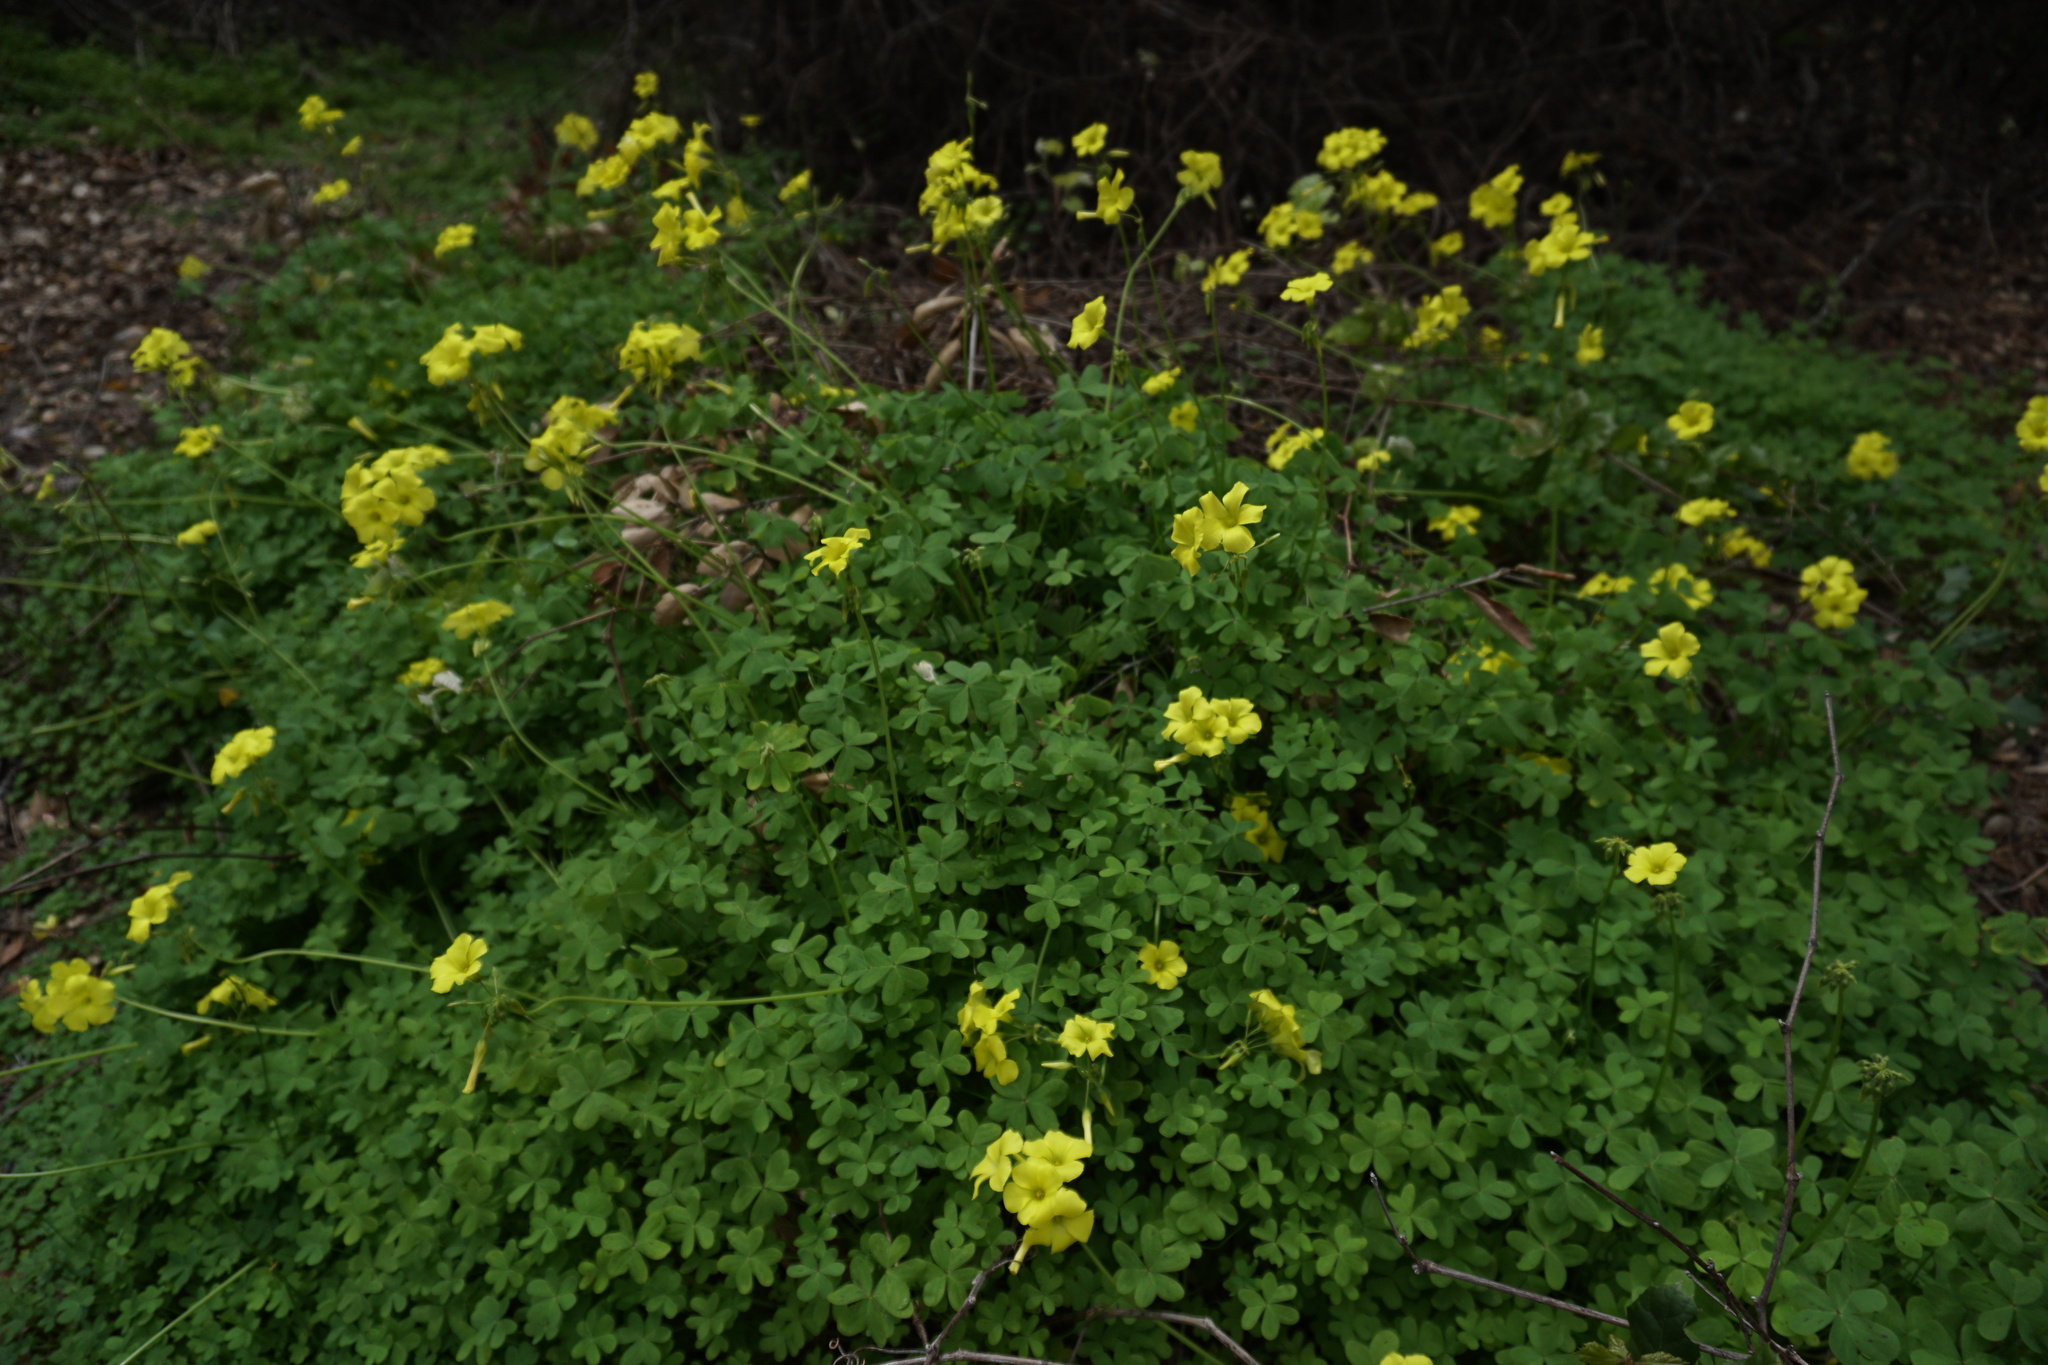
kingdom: Plantae
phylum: Tracheophyta
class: Magnoliopsida
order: Oxalidales
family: Oxalidaceae
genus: Oxalis
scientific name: Oxalis pes-caprae
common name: Bermuda-buttercup
